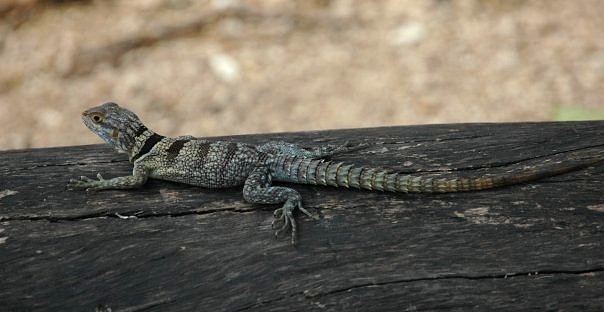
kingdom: Animalia
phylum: Chordata
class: Squamata
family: Opluridae
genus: Oplurus
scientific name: Oplurus cuvieri
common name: Cuvier's madagascar swift
